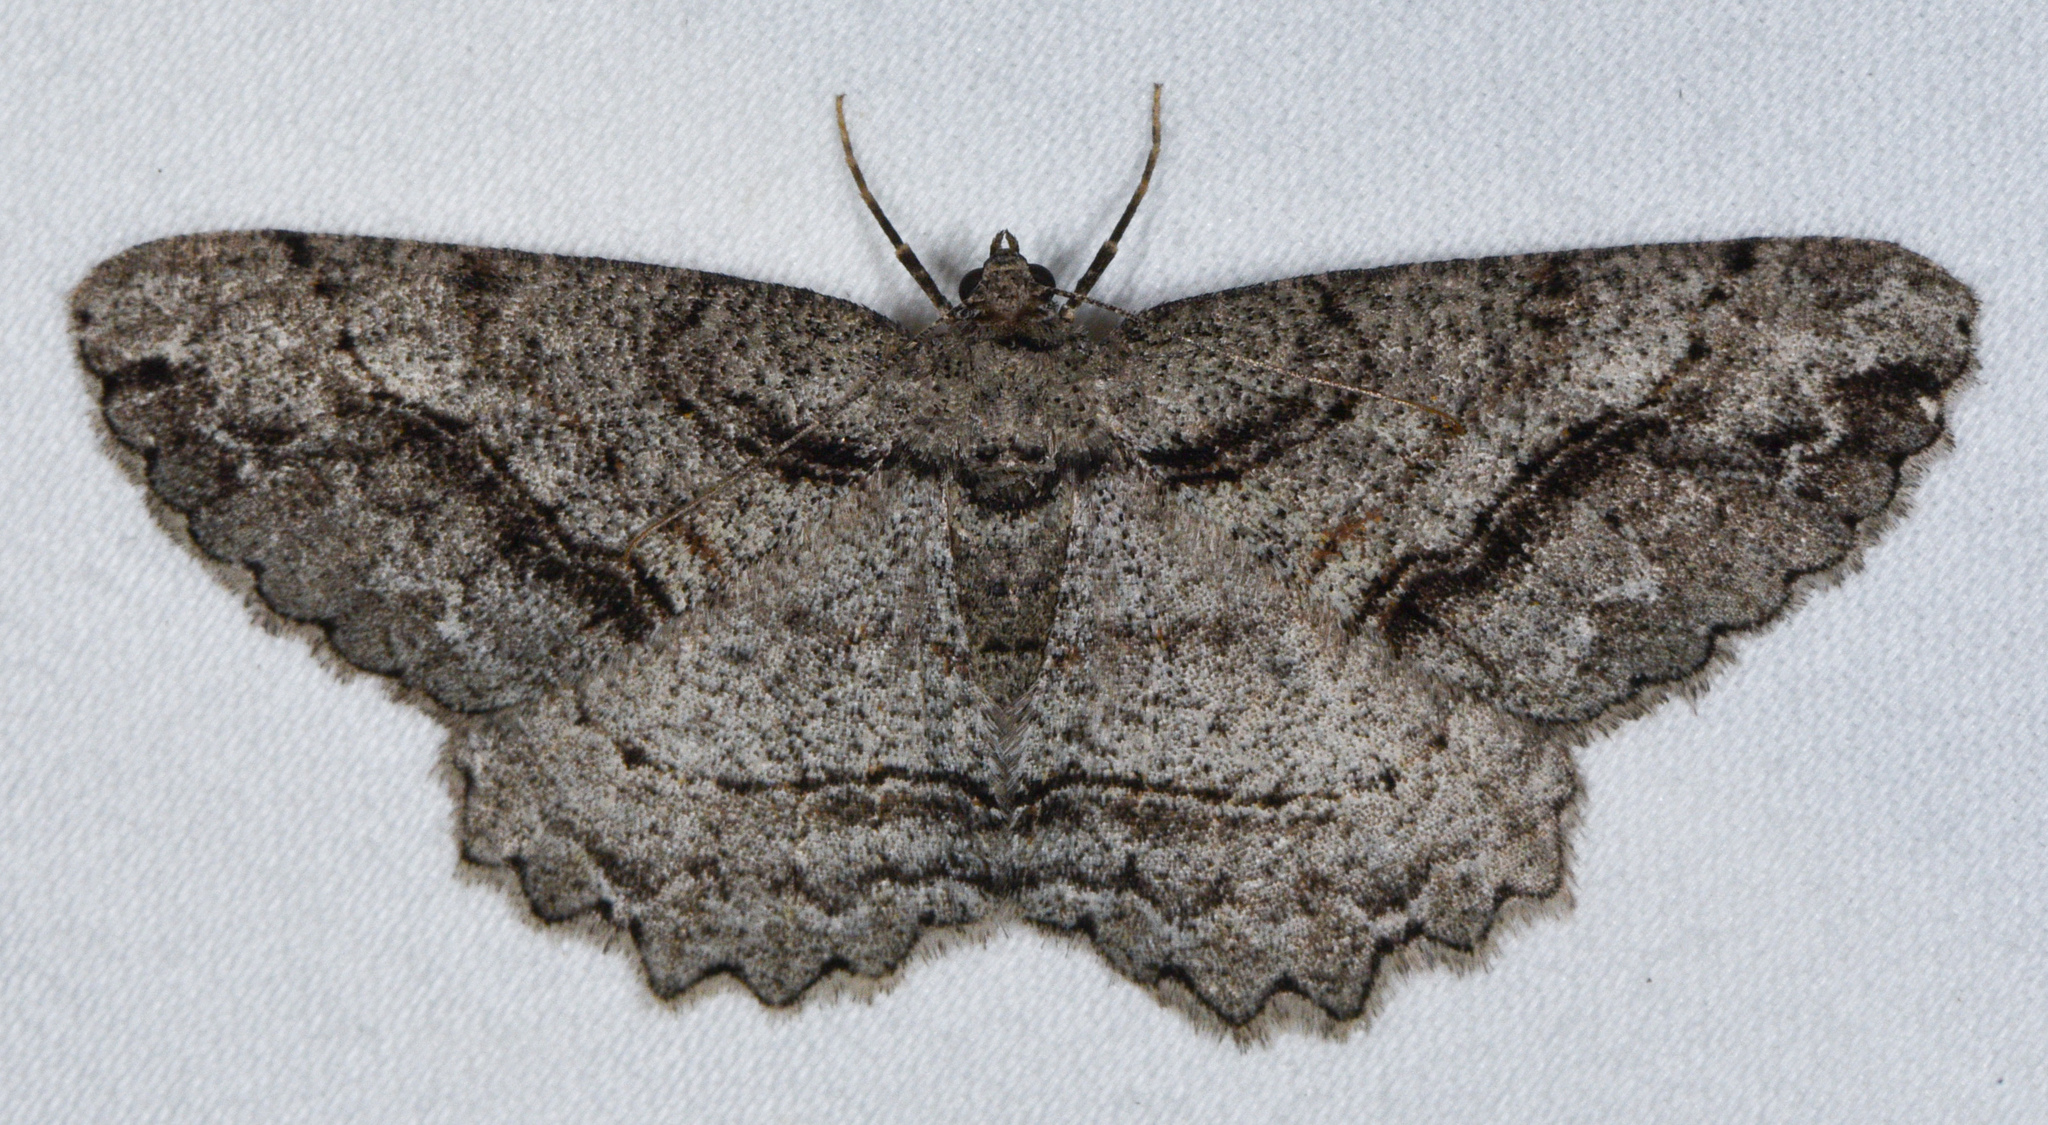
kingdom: Animalia
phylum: Arthropoda
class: Insecta
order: Lepidoptera
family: Geometridae
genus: Neoalcis
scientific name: Neoalcis californiaria
